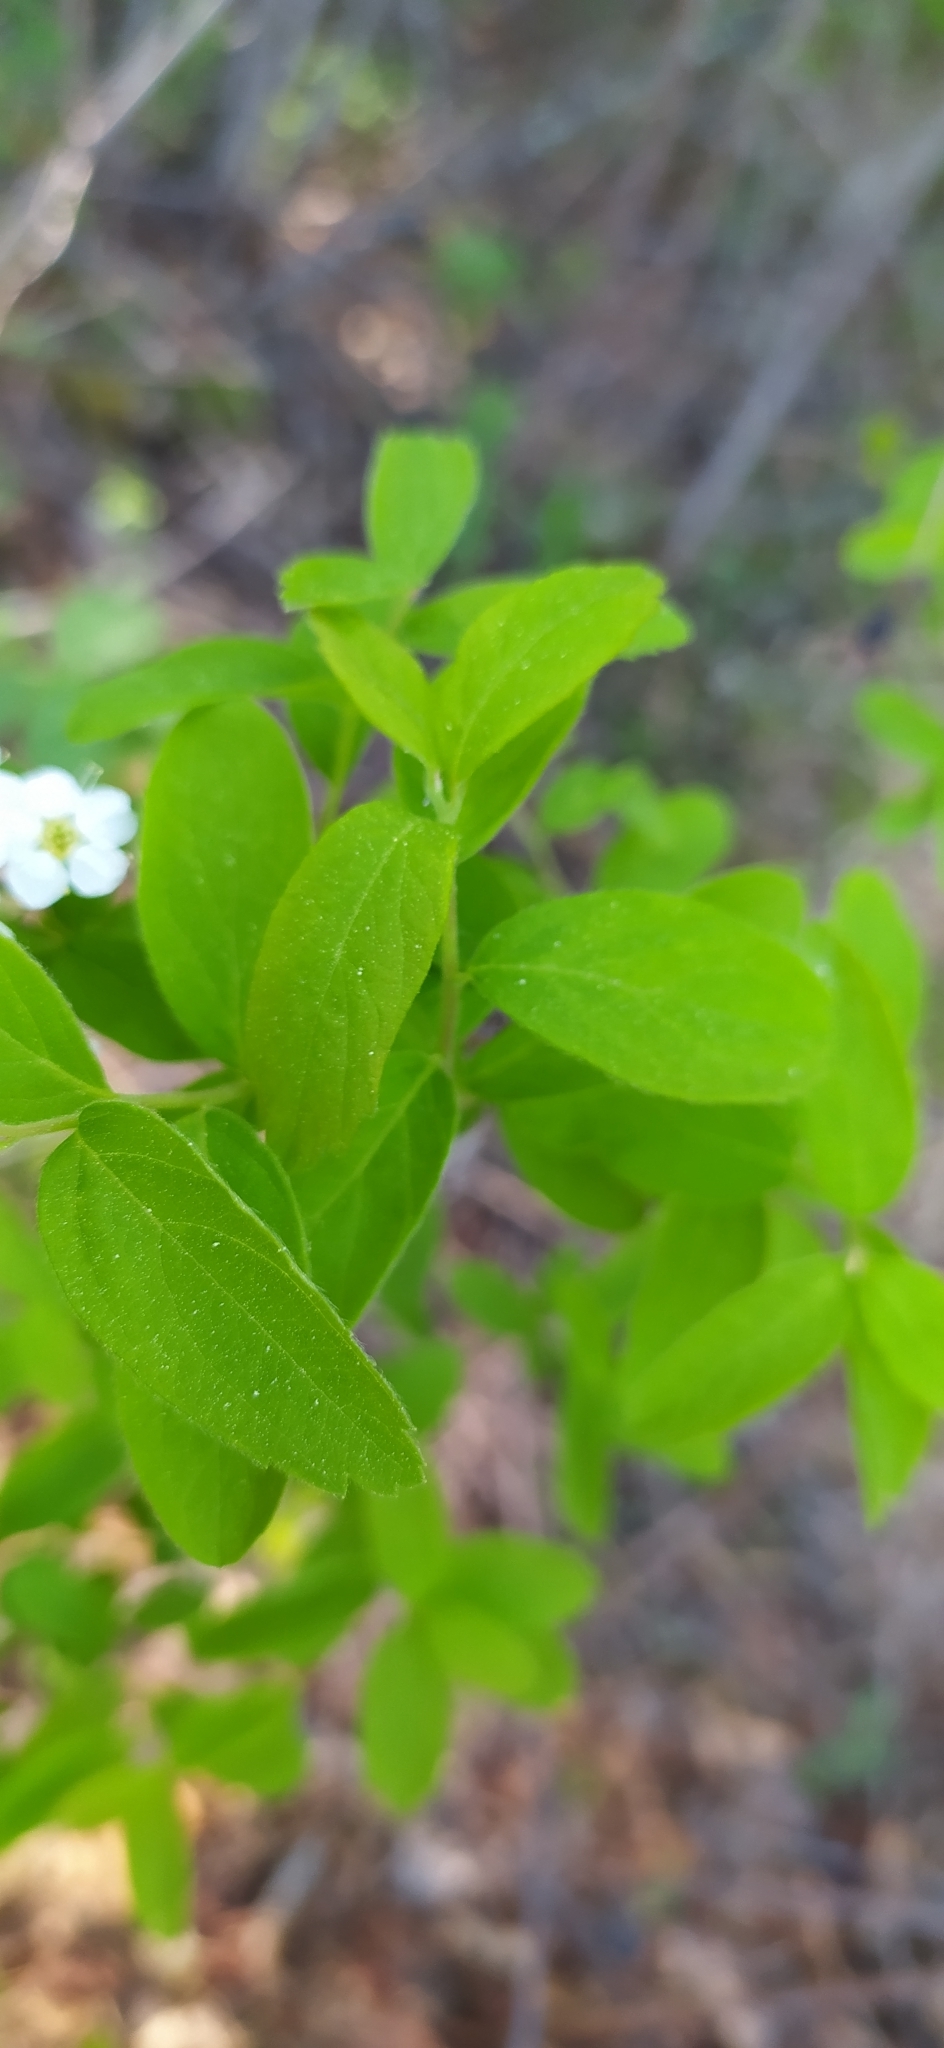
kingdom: Plantae
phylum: Tracheophyta
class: Magnoliopsida
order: Rosales
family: Rosaceae
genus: Spiraea
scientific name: Spiraea media
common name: Russian spiraea
